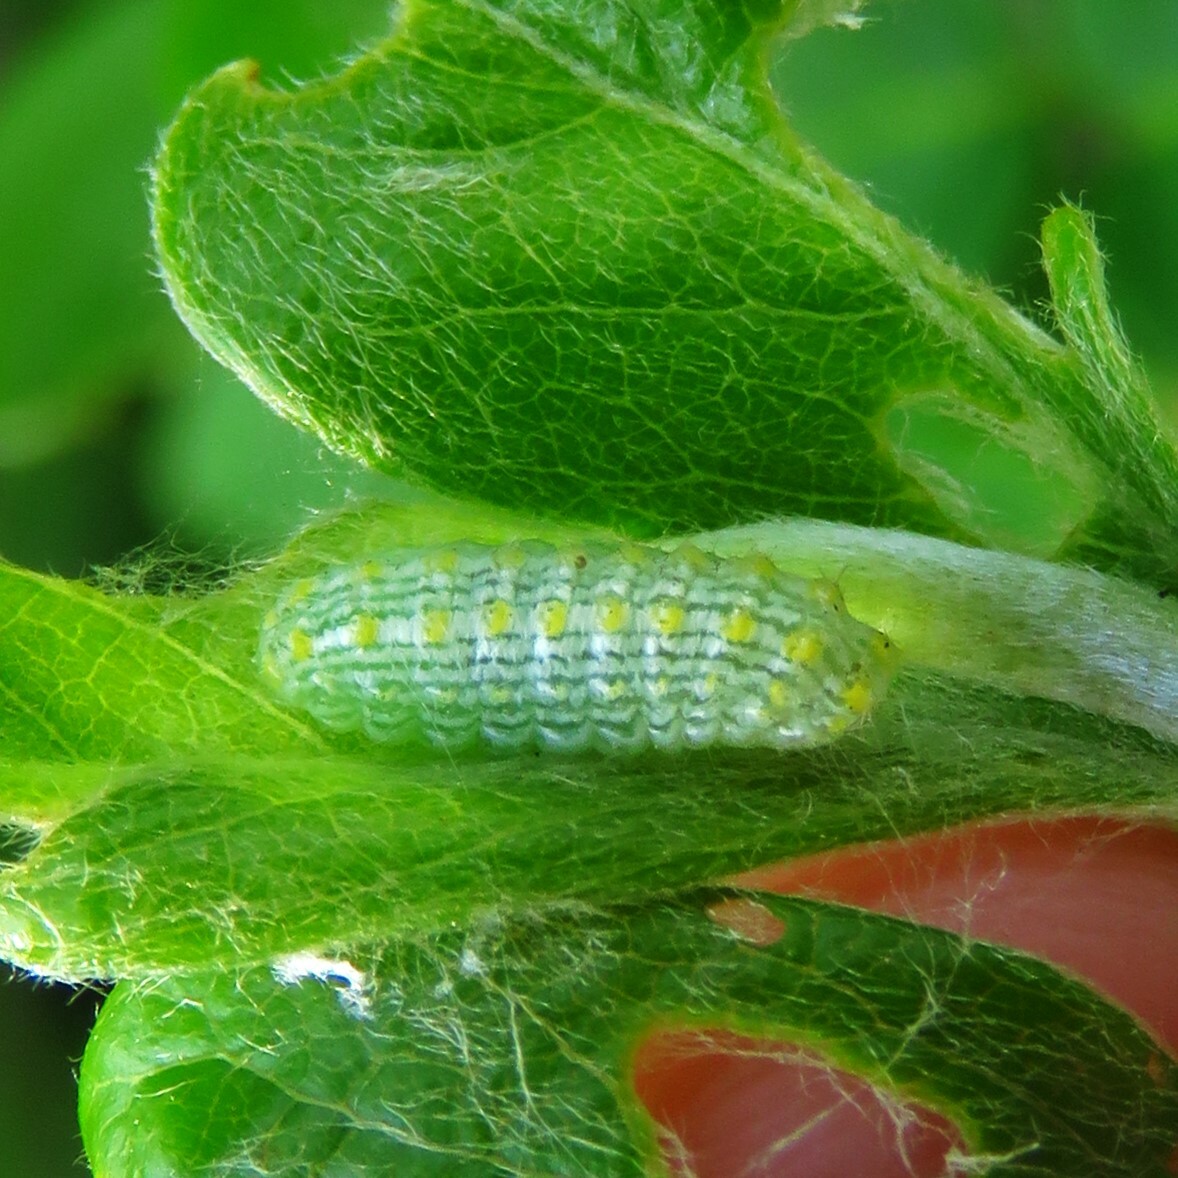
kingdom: Animalia
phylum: Arthropoda
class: Insecta
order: Lepidoptera
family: Lacturidae
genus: Lactura
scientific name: Lactura
